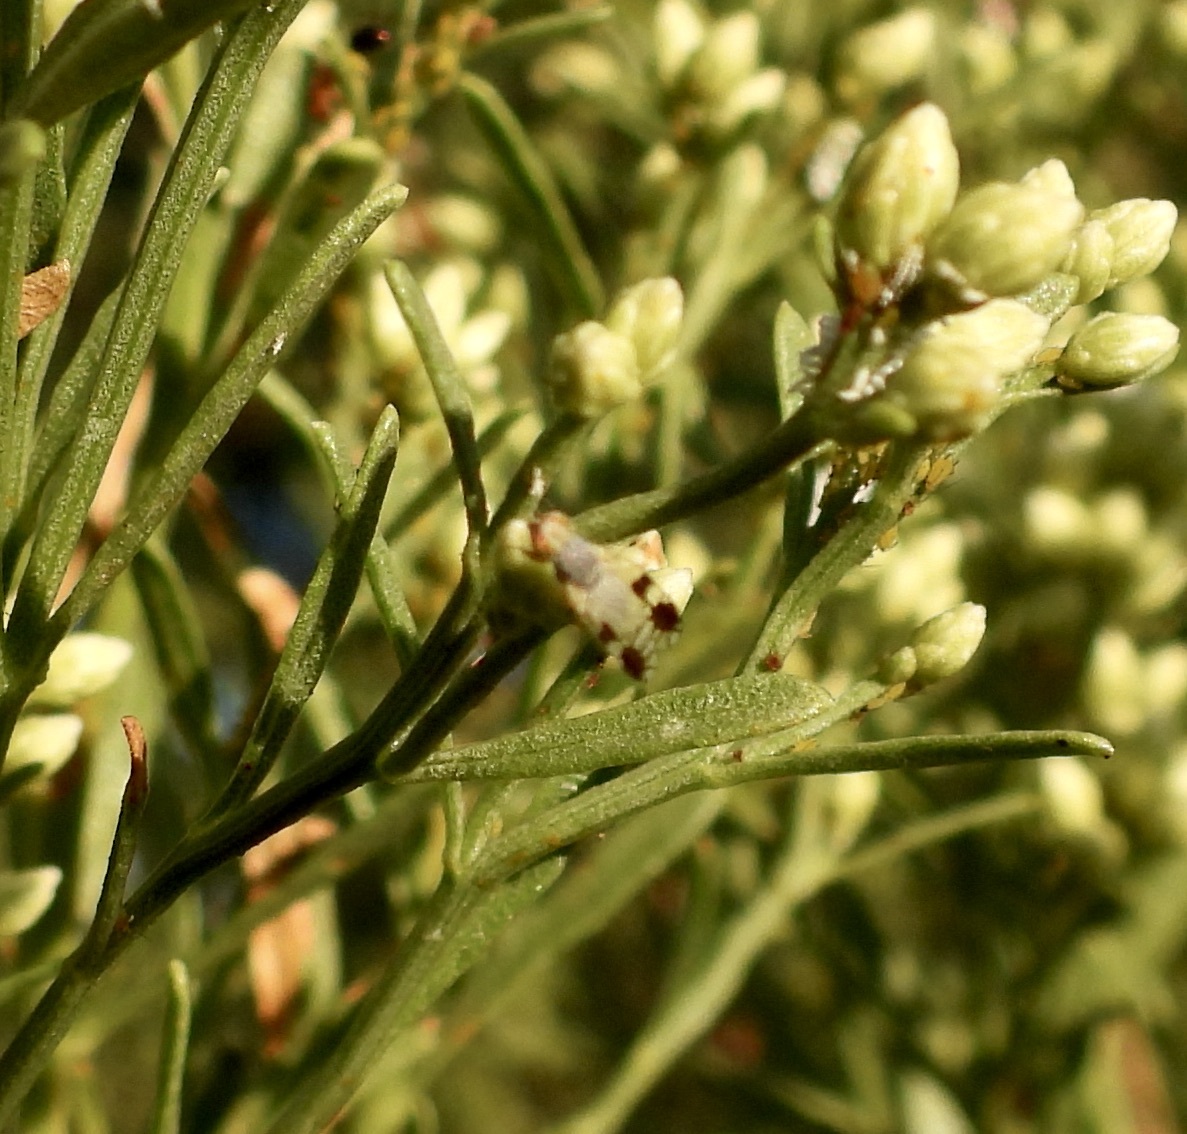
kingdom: Animalia
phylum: Arthropoda
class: Insecta
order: Diptera
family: Tephritidae
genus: Trupanea
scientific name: Trupanea bisetosa
